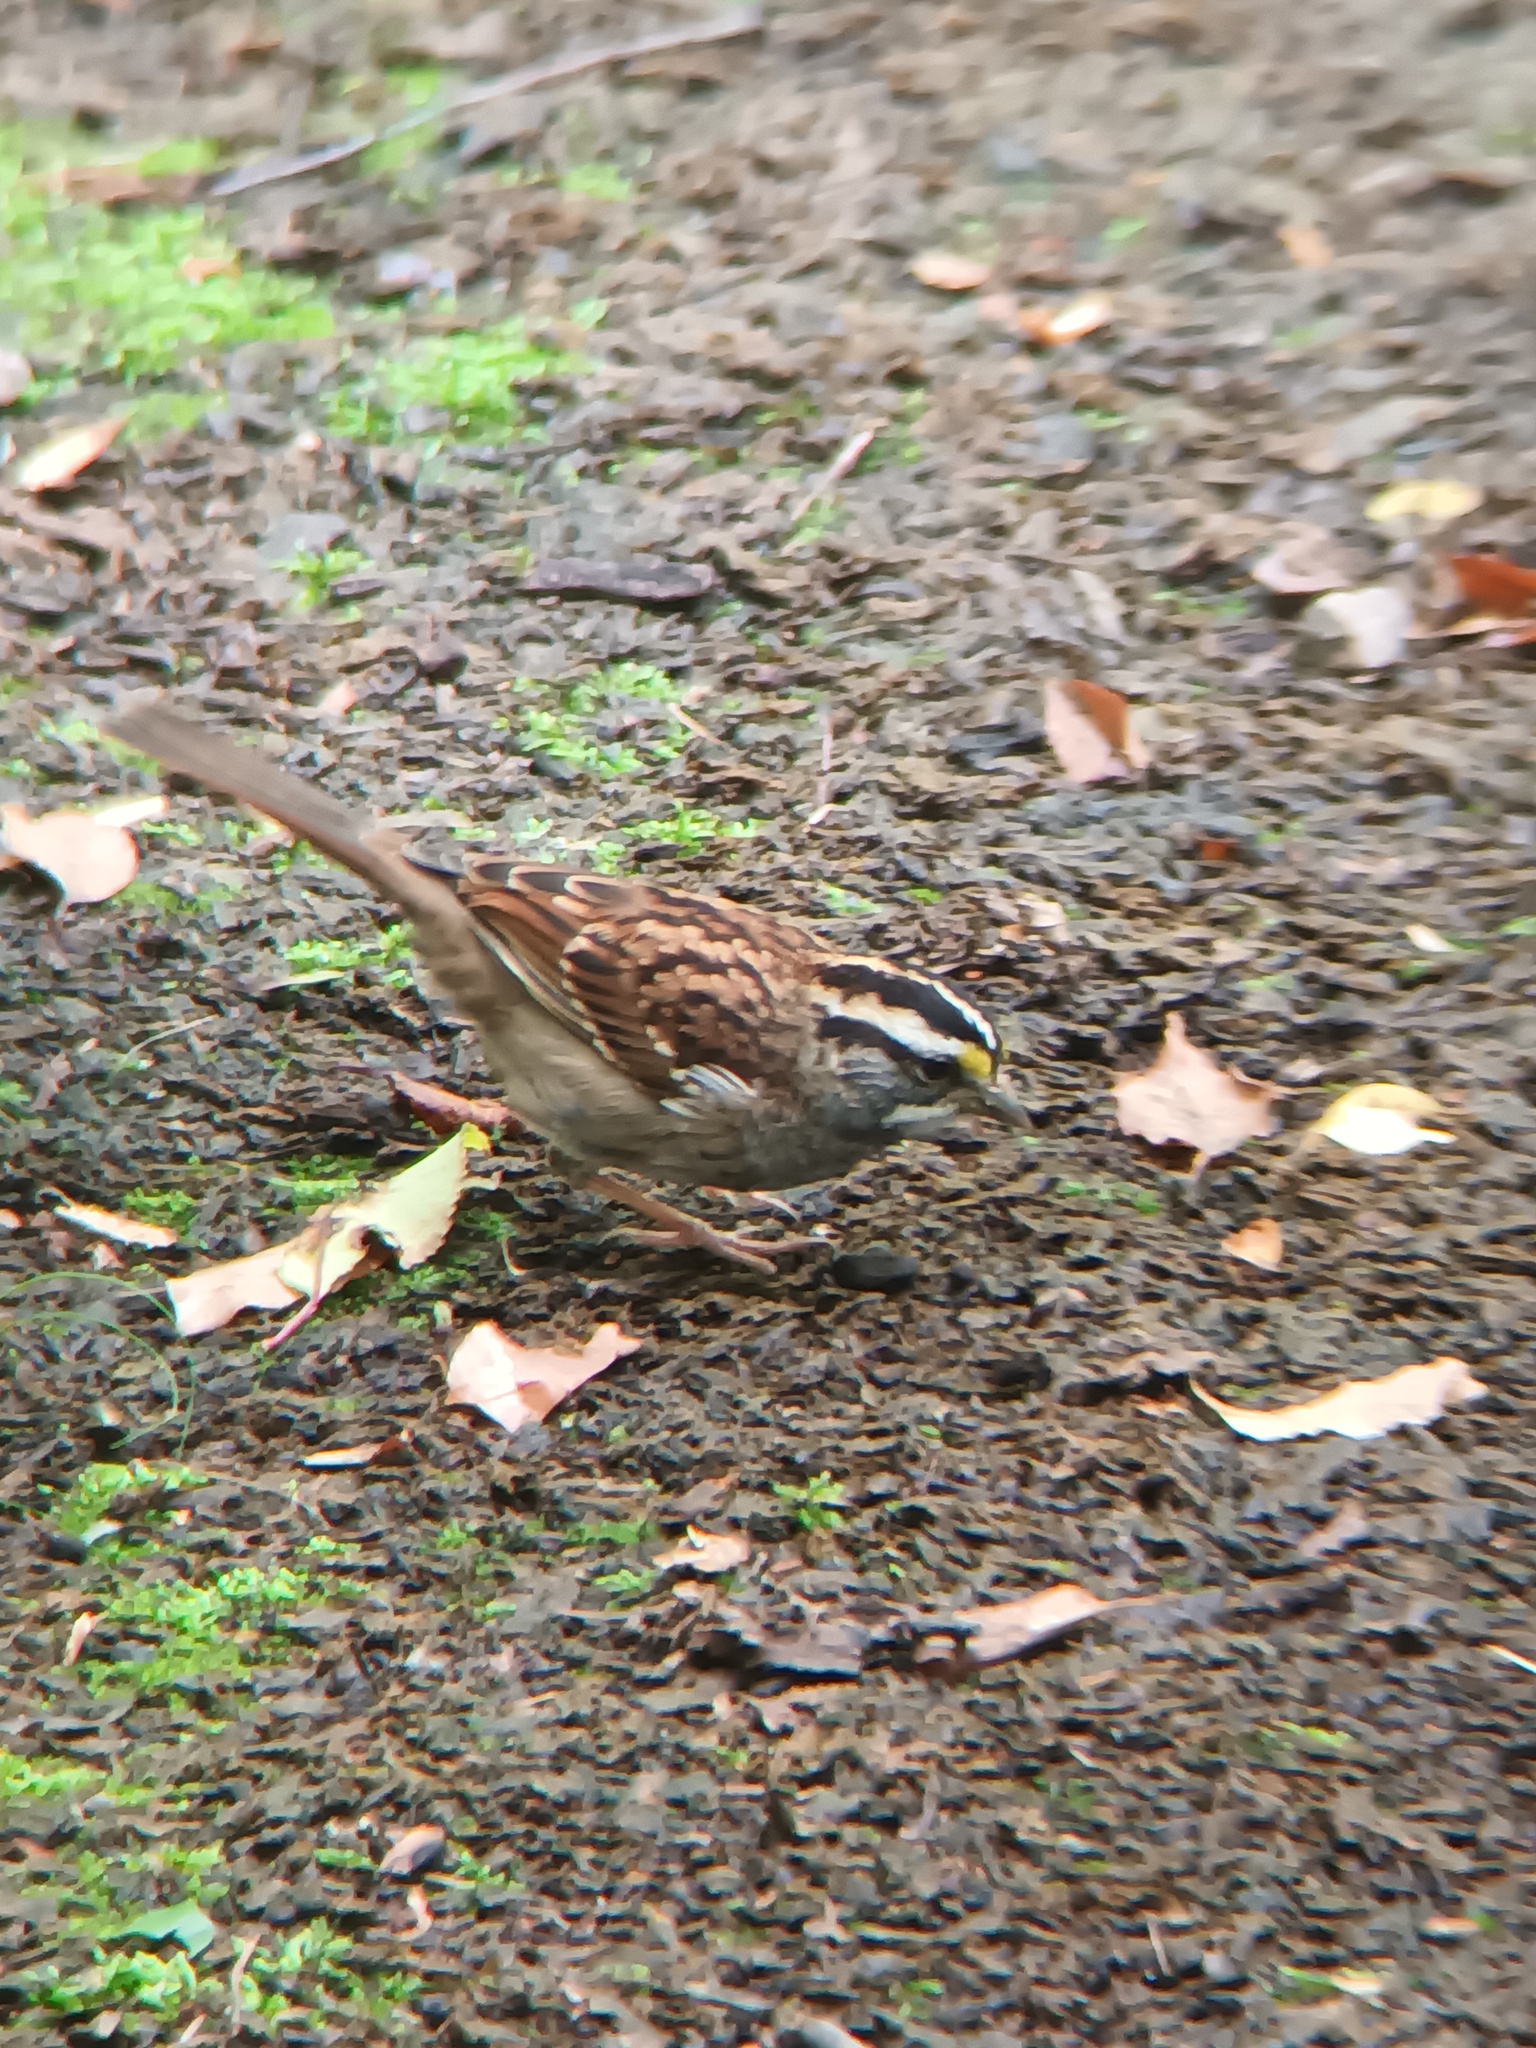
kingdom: Animalia
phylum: Chordata
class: Aves
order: Passeriformes
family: Passerellidae
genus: Zonotrichia
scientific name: Zonotrichia albicollis
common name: White-throated sparrow
